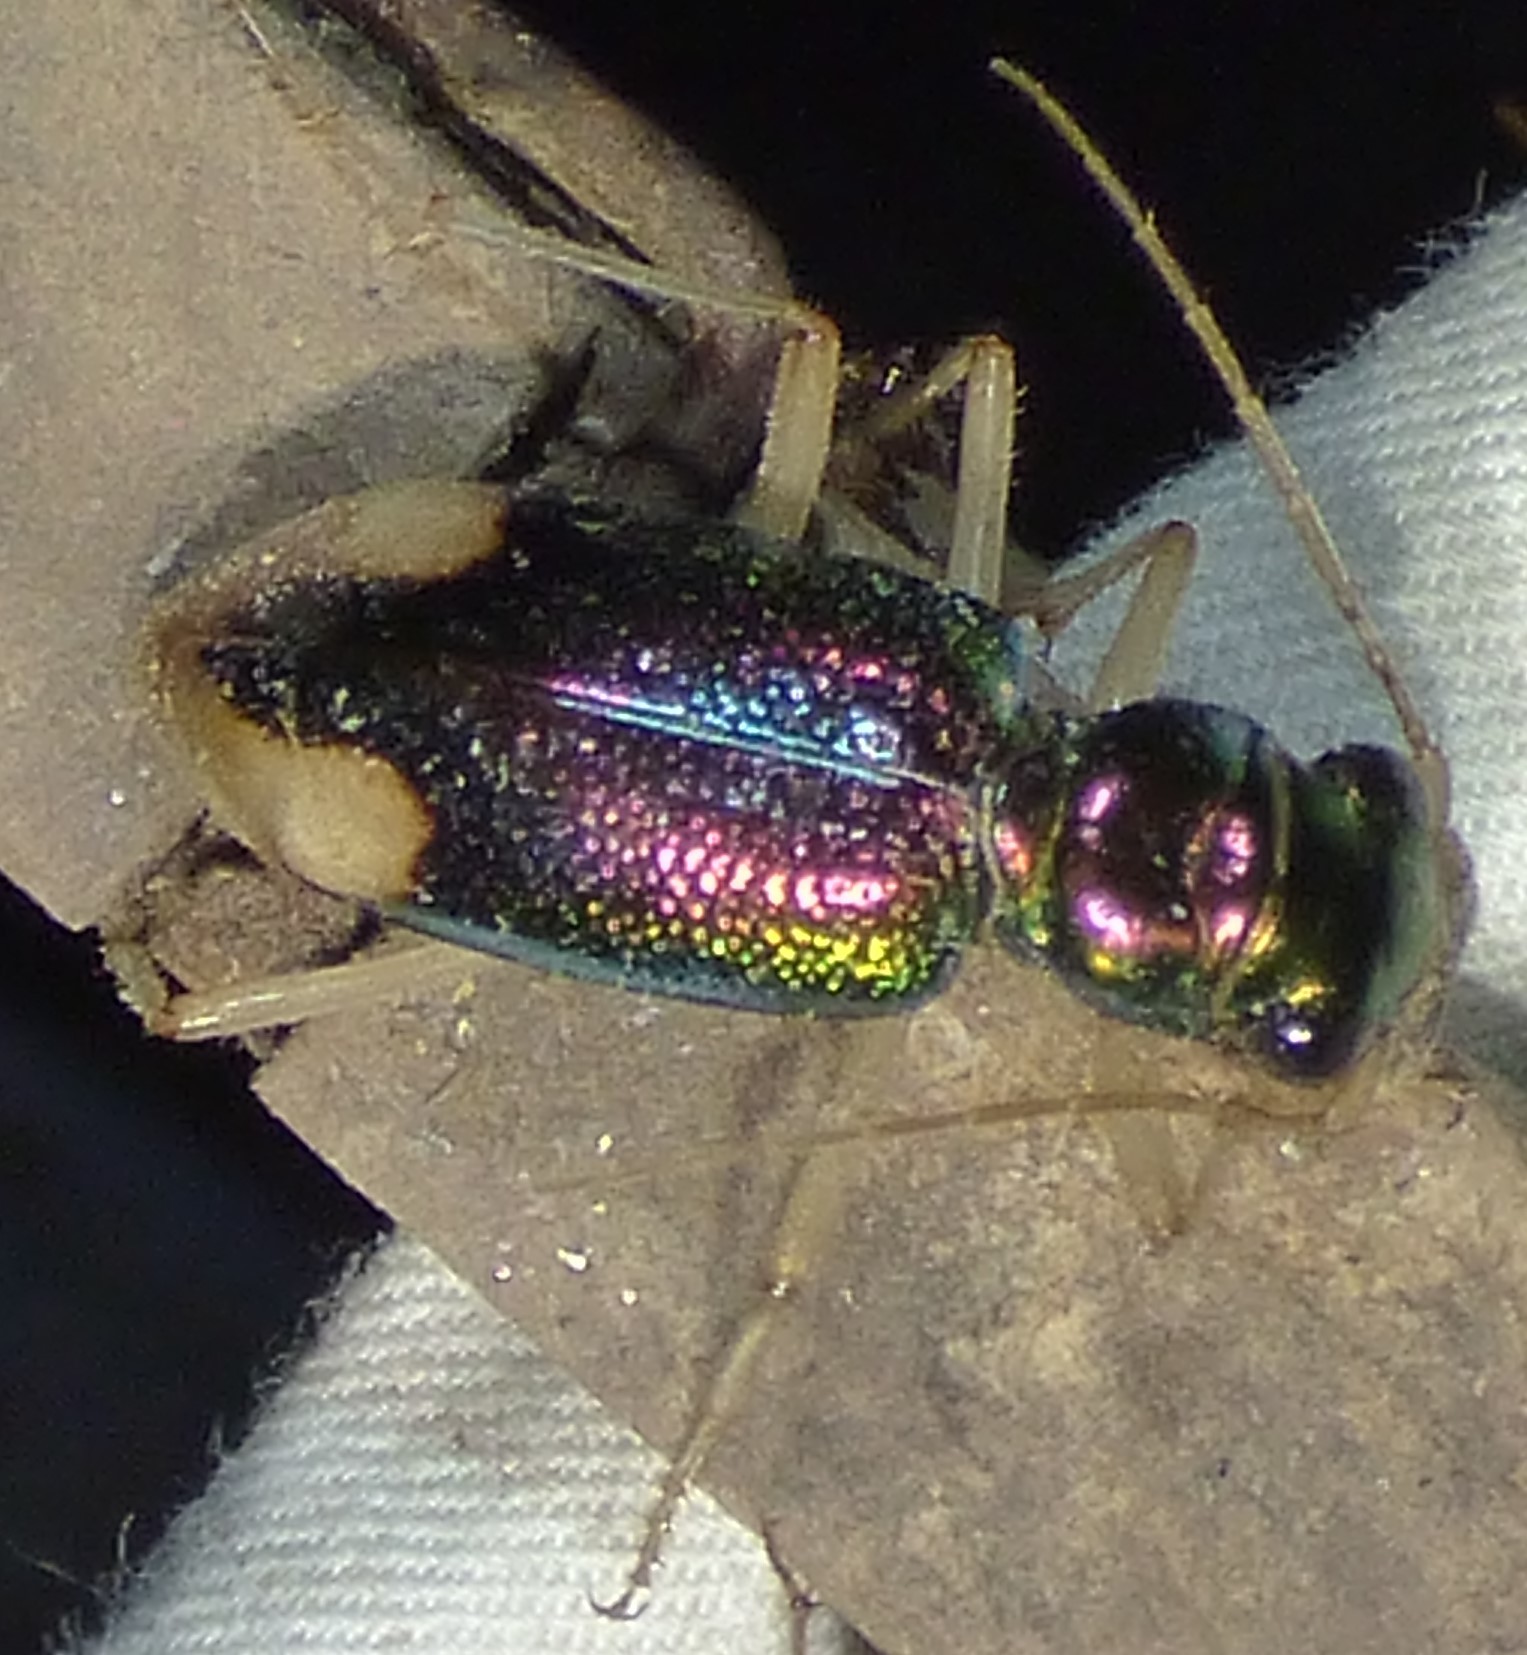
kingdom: Animalia
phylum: Arthropoda
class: Insecta
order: Coleoptera
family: Carabidae
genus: Tetracha
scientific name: Tetracha carolina
